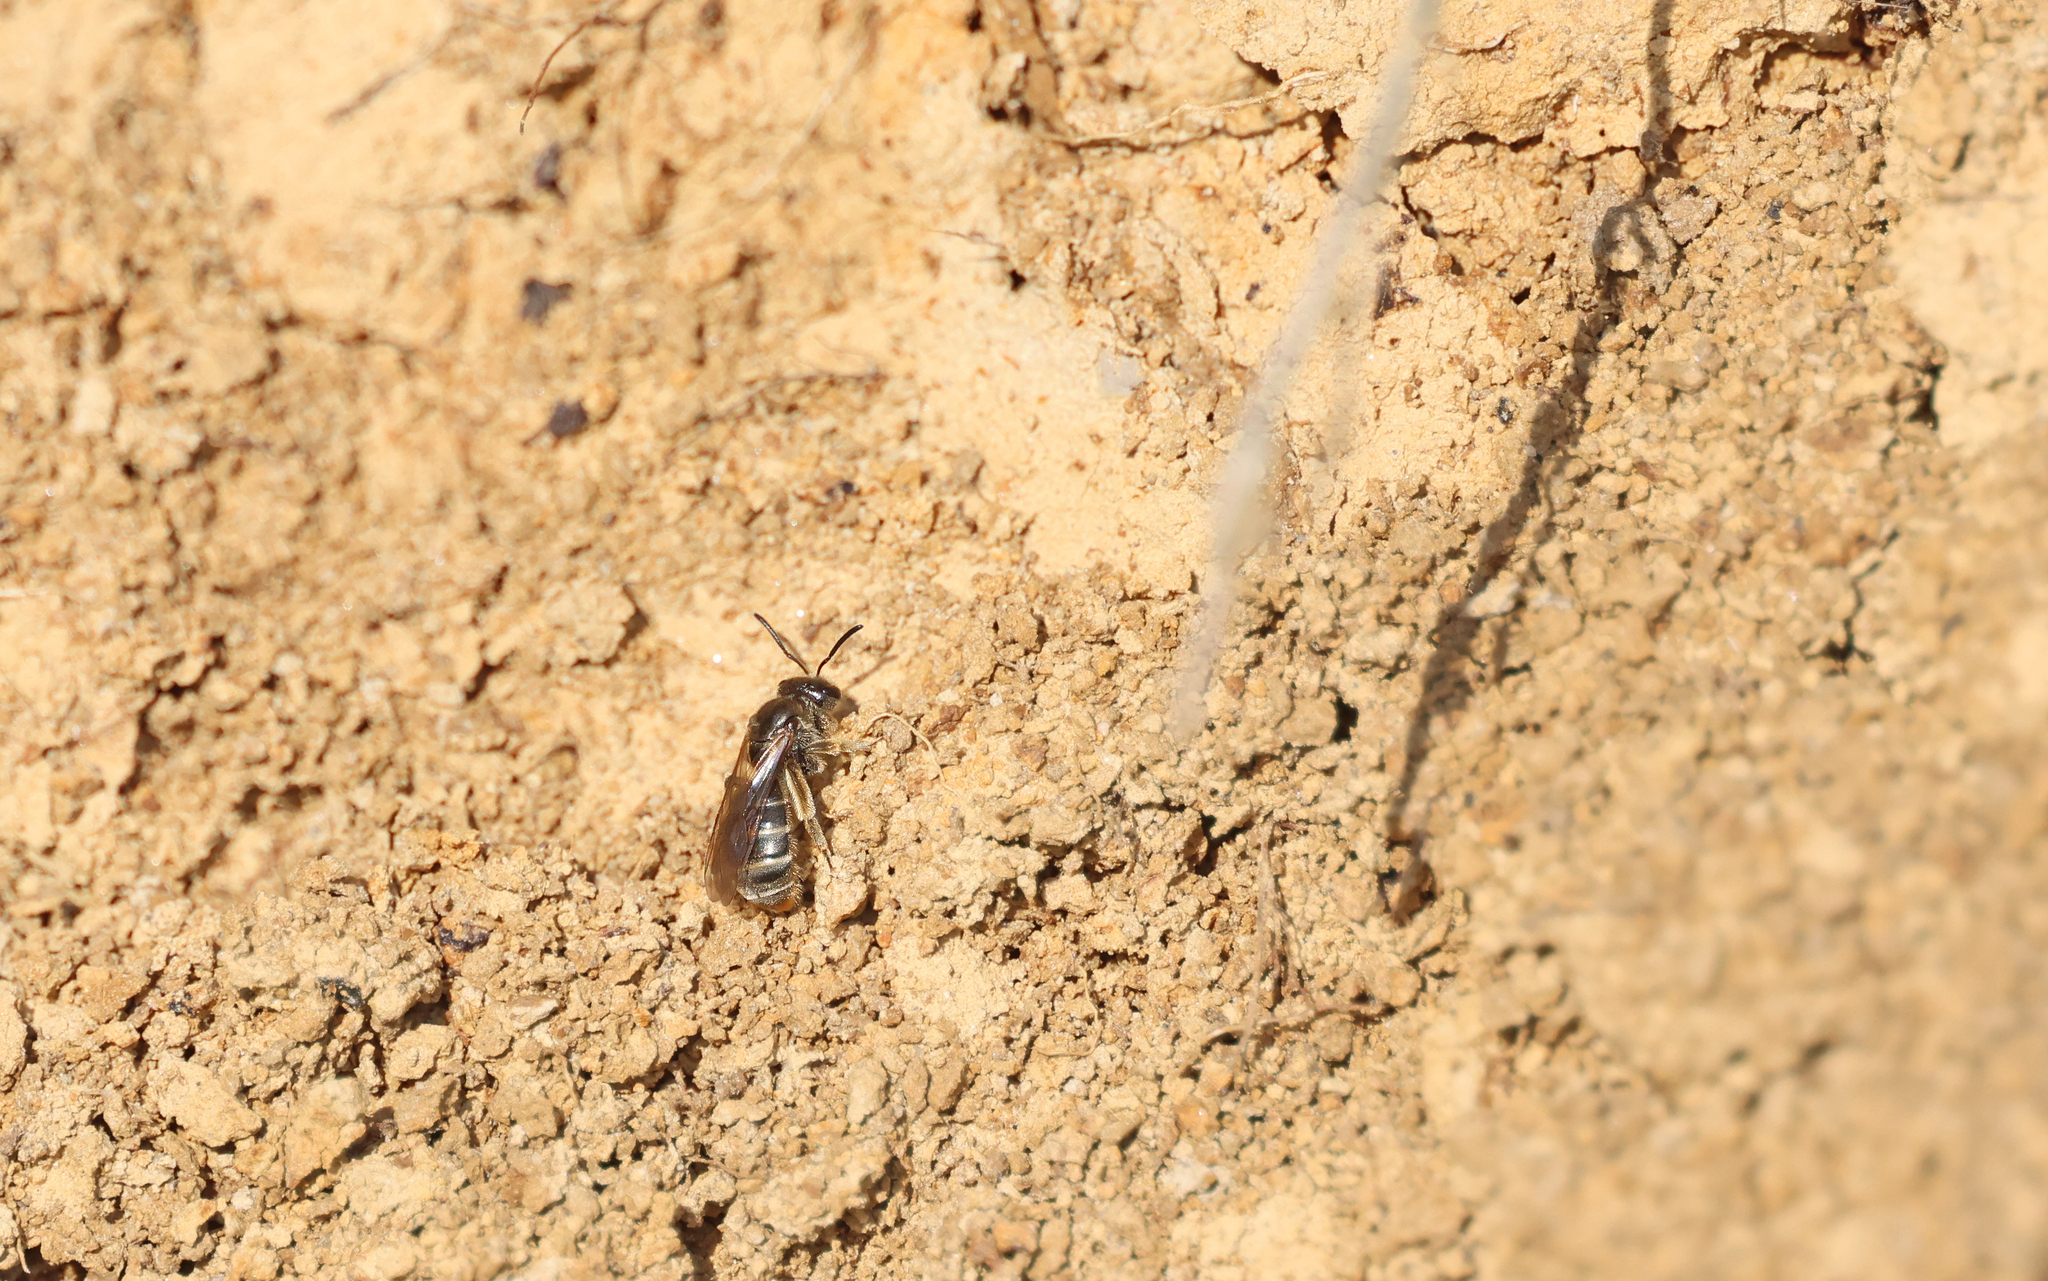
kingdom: Animalia
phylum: Arthropoda
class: Insecta
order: Hymenoptera
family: Halictidae
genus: Lasioglossum
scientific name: Lasioglossum marginatum
